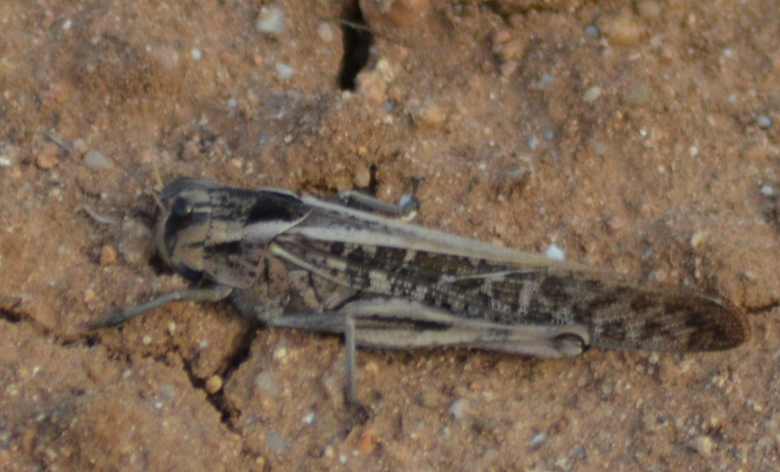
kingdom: Animalia
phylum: Arthropoda
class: Insecta
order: Orthoptera
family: Acrididae
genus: Locusta
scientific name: Locusta migratoria
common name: Migratory locust
